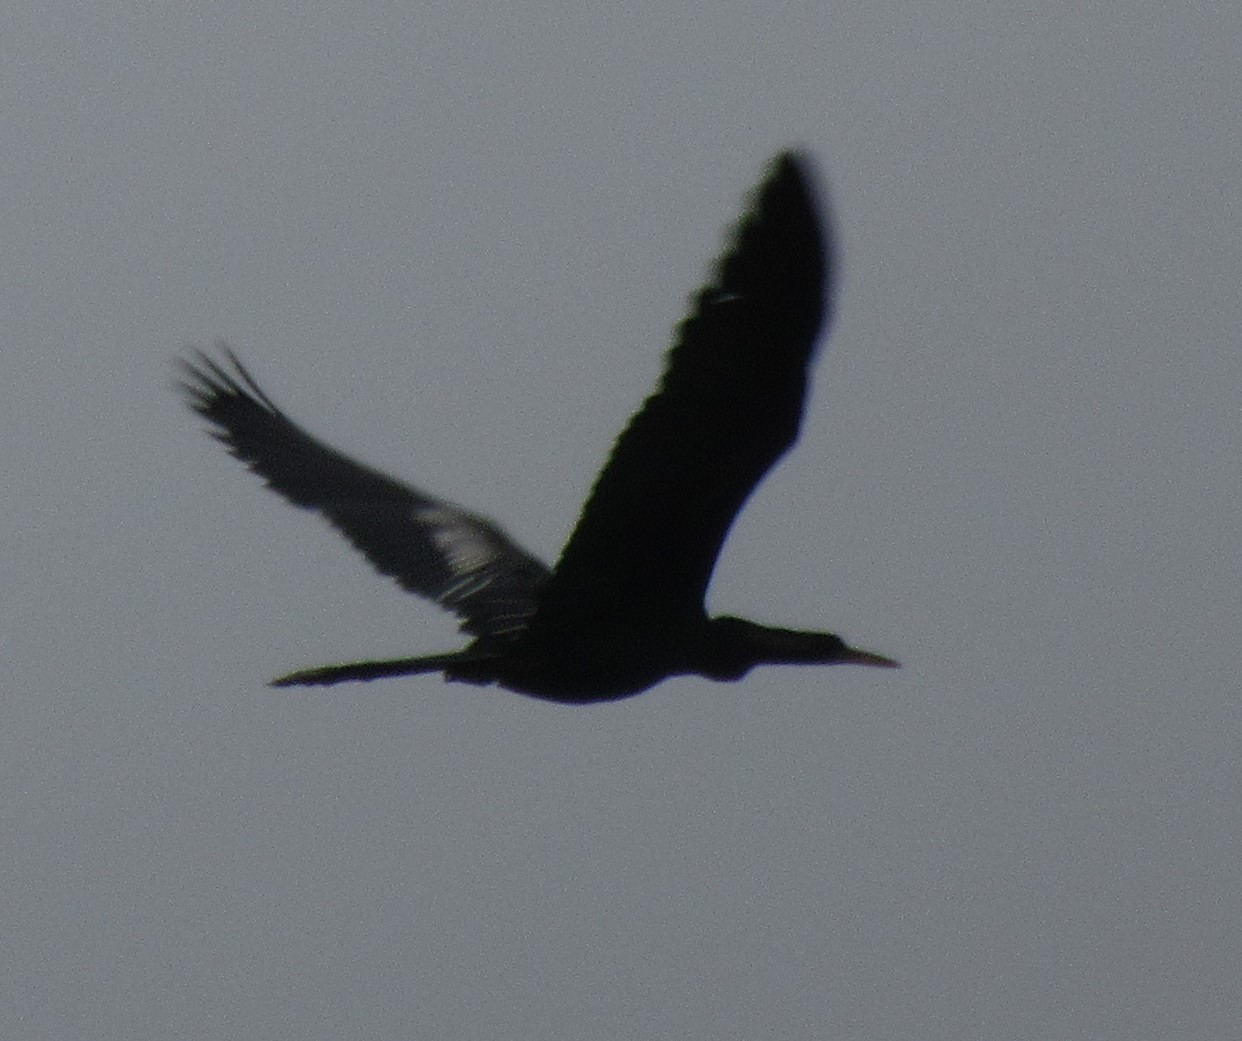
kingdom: Animalia
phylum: Chordata
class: Aves
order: Suliformes
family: Anhingidae
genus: Anhinga
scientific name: Anhinga anhinga
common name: Anhinga
